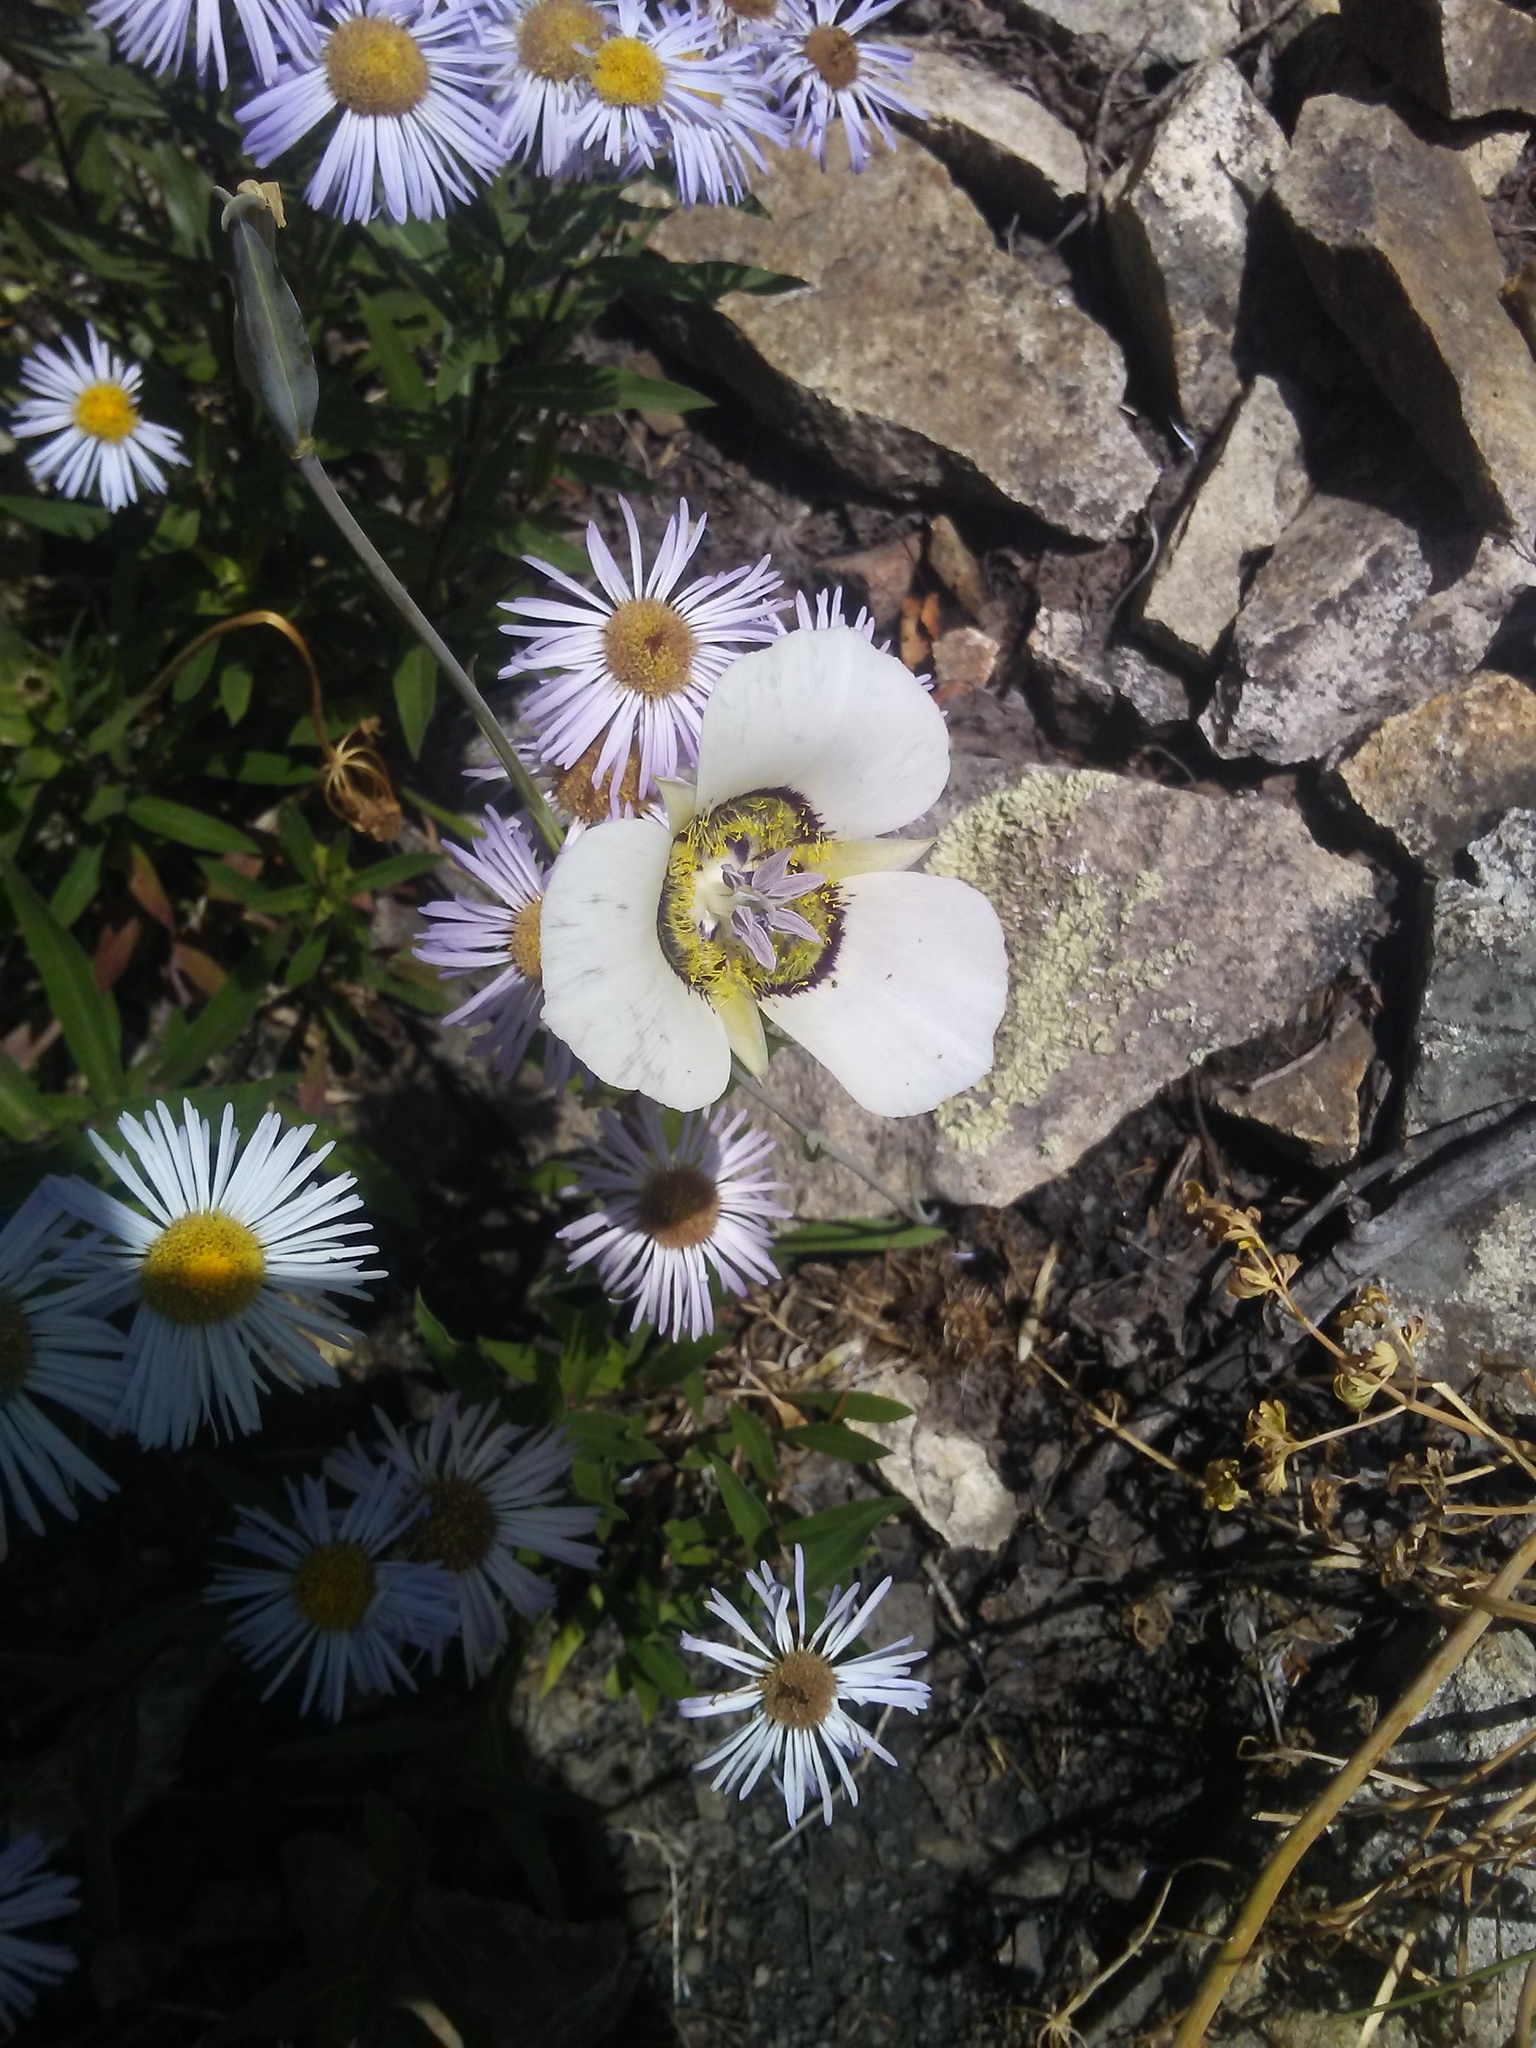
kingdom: Plantae
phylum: Tracheophyta
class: Liliopsida
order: Liliales
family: Liliaceae
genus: Calochortus
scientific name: Calochortus gunnisonii
